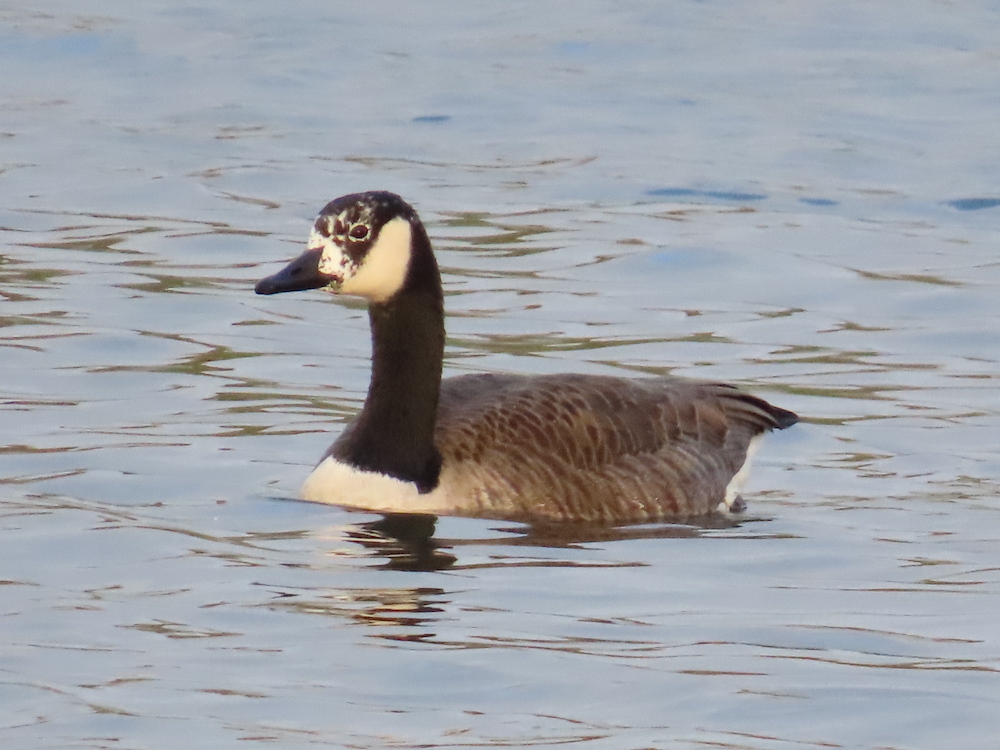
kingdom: Animalia
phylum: Chordata
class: Aves
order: Anseriformes
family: Anatidae
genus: Branta
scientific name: Branta canadensis
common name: Canada goose
